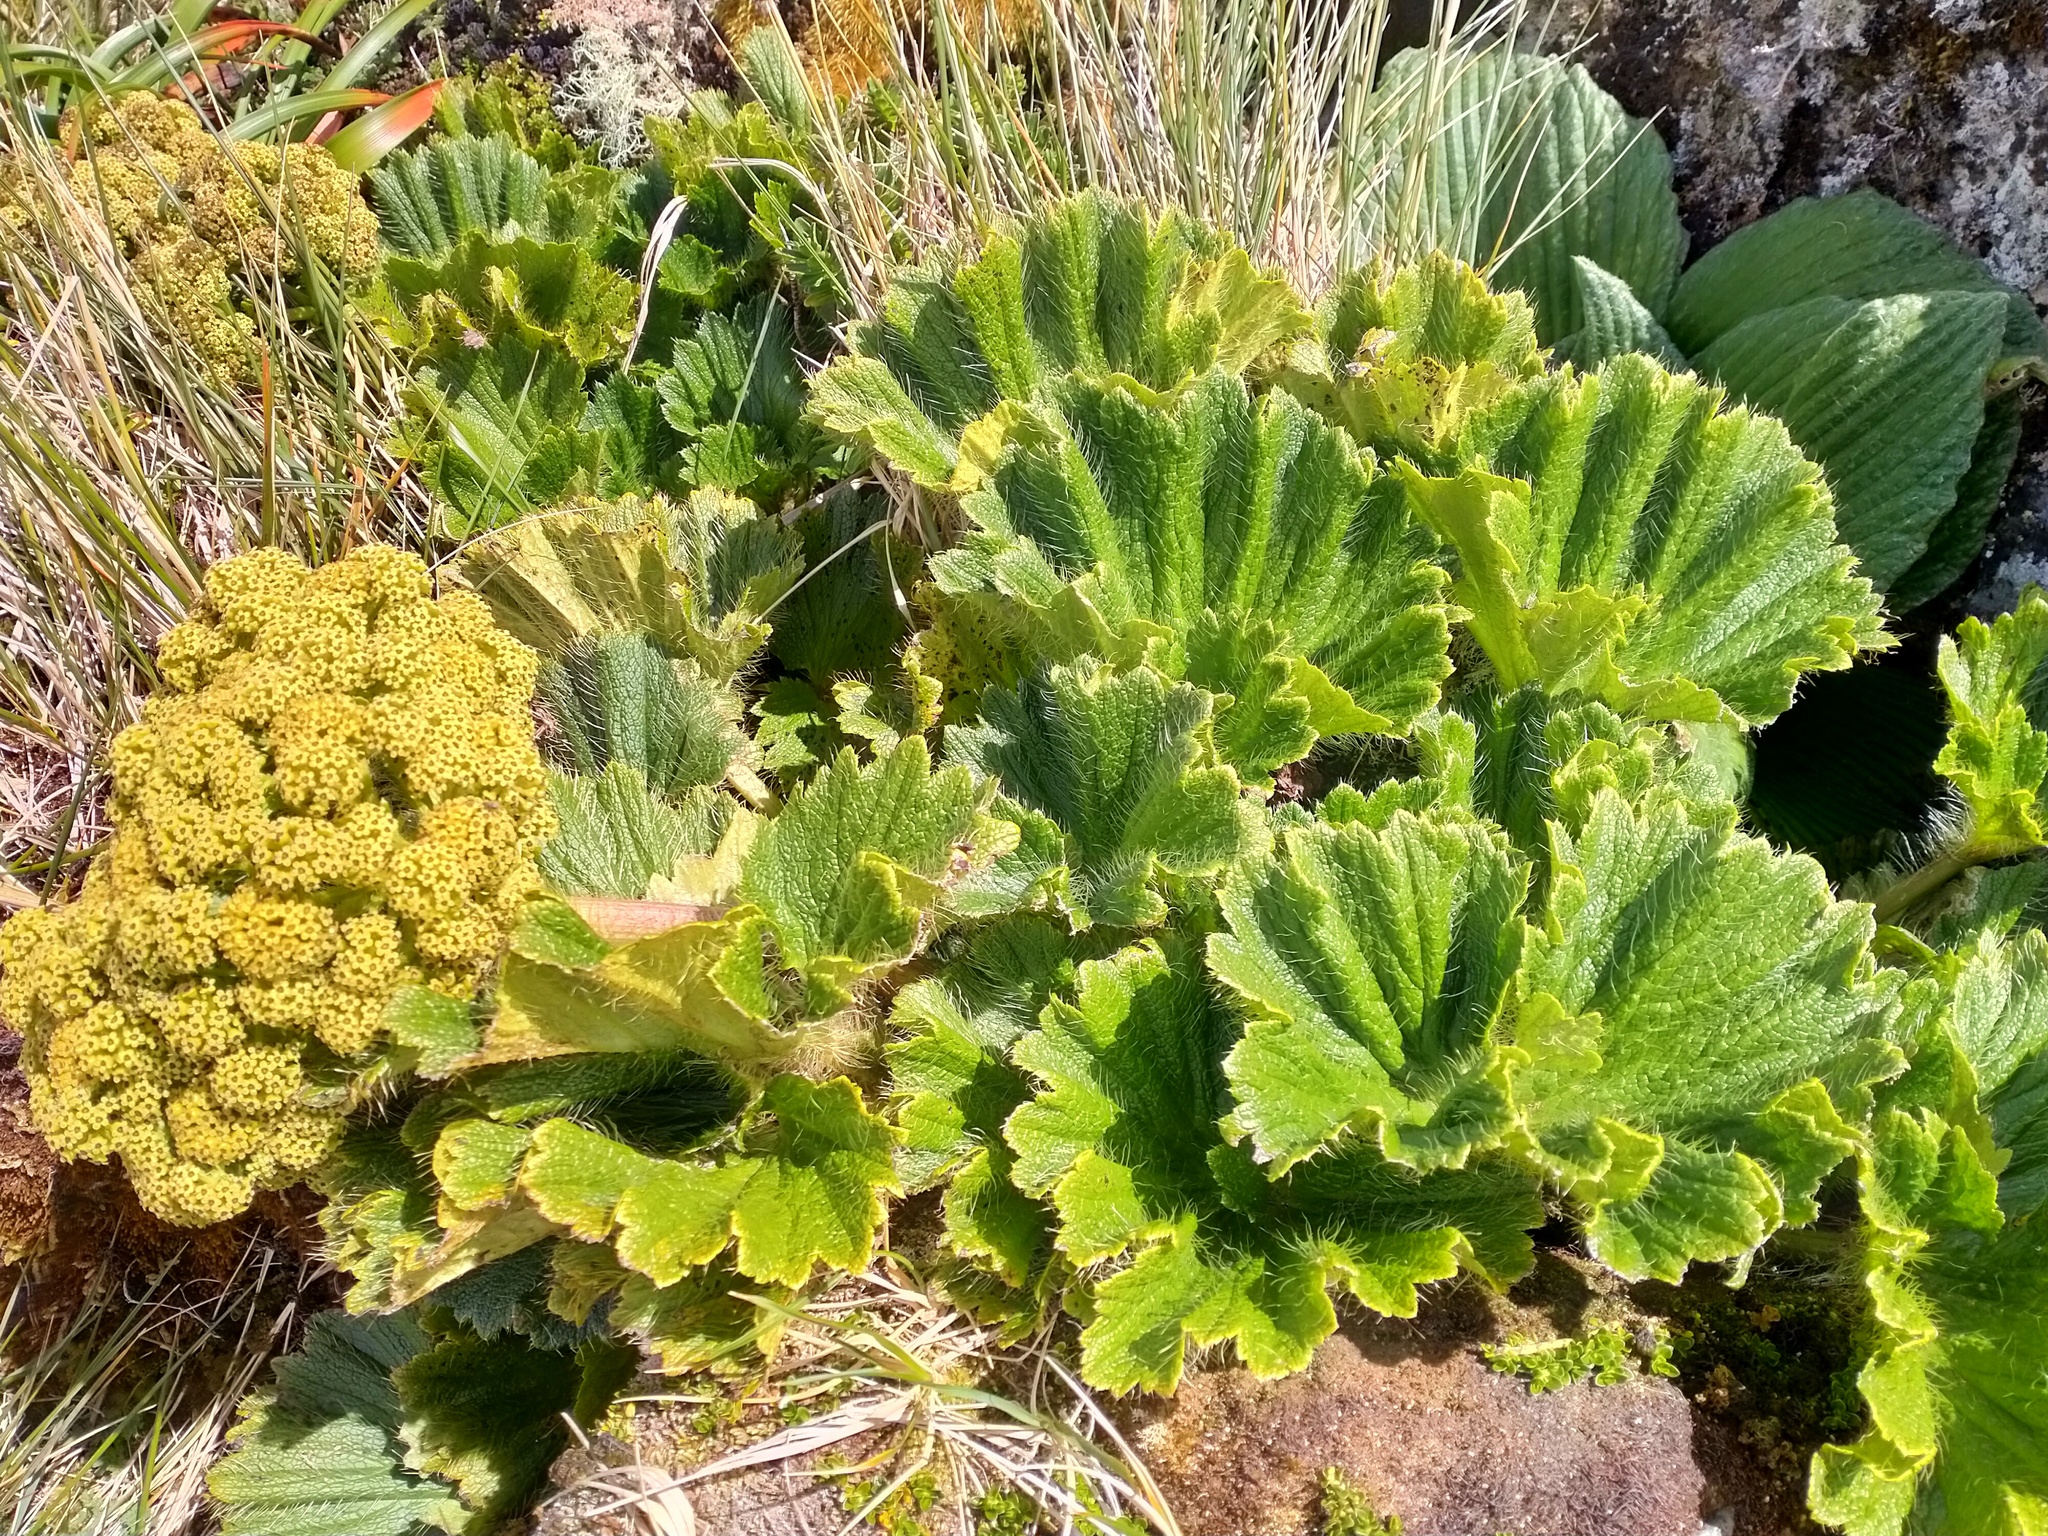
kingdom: Plantae
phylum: Tracheophyta
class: Magnoliopsida
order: Apiales
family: Apiaceae
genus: Azorella
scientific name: Azorella polaris
